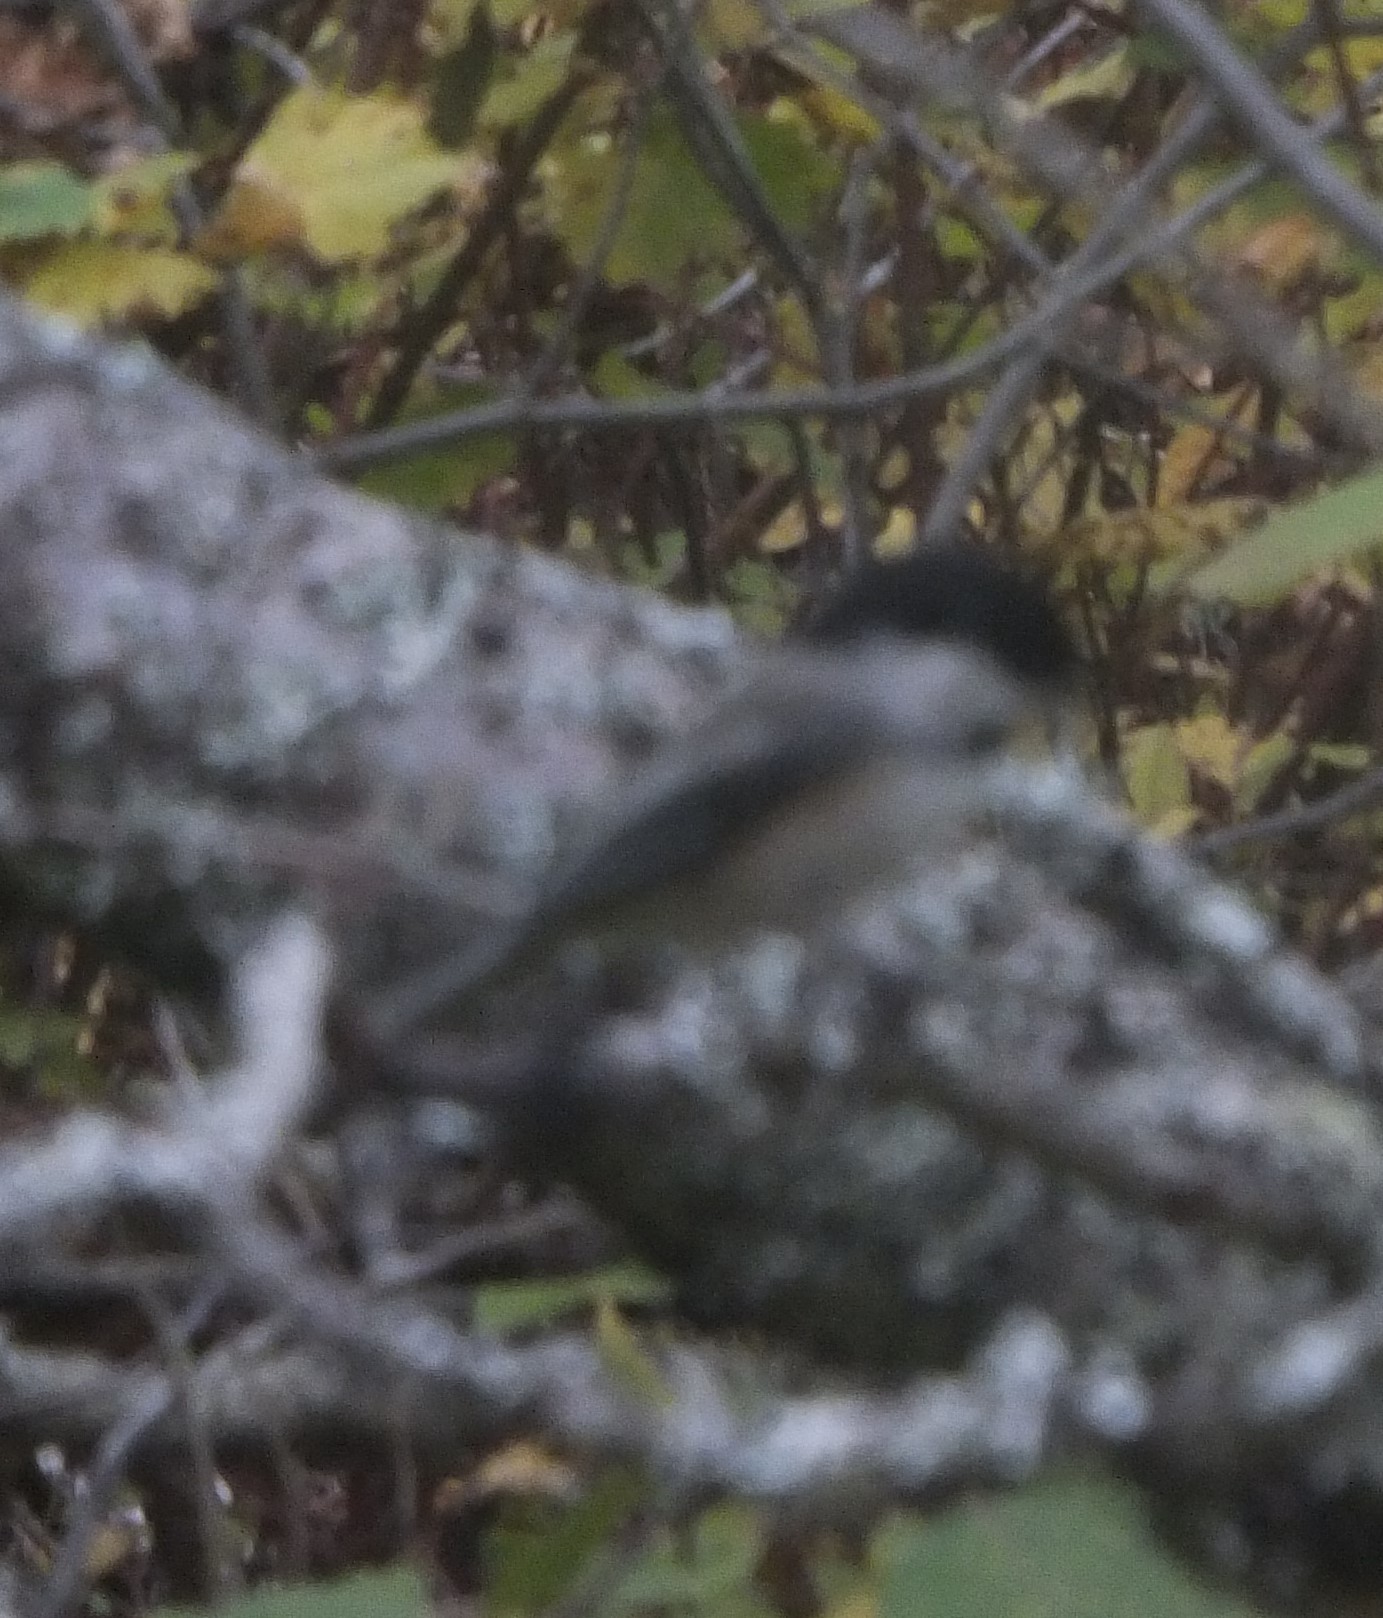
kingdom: Animalia
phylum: Chordata
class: Aves
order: Passeriformes
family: Paridae
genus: Poecile
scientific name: Poecile atricapillus
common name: Black-capped chickadee
